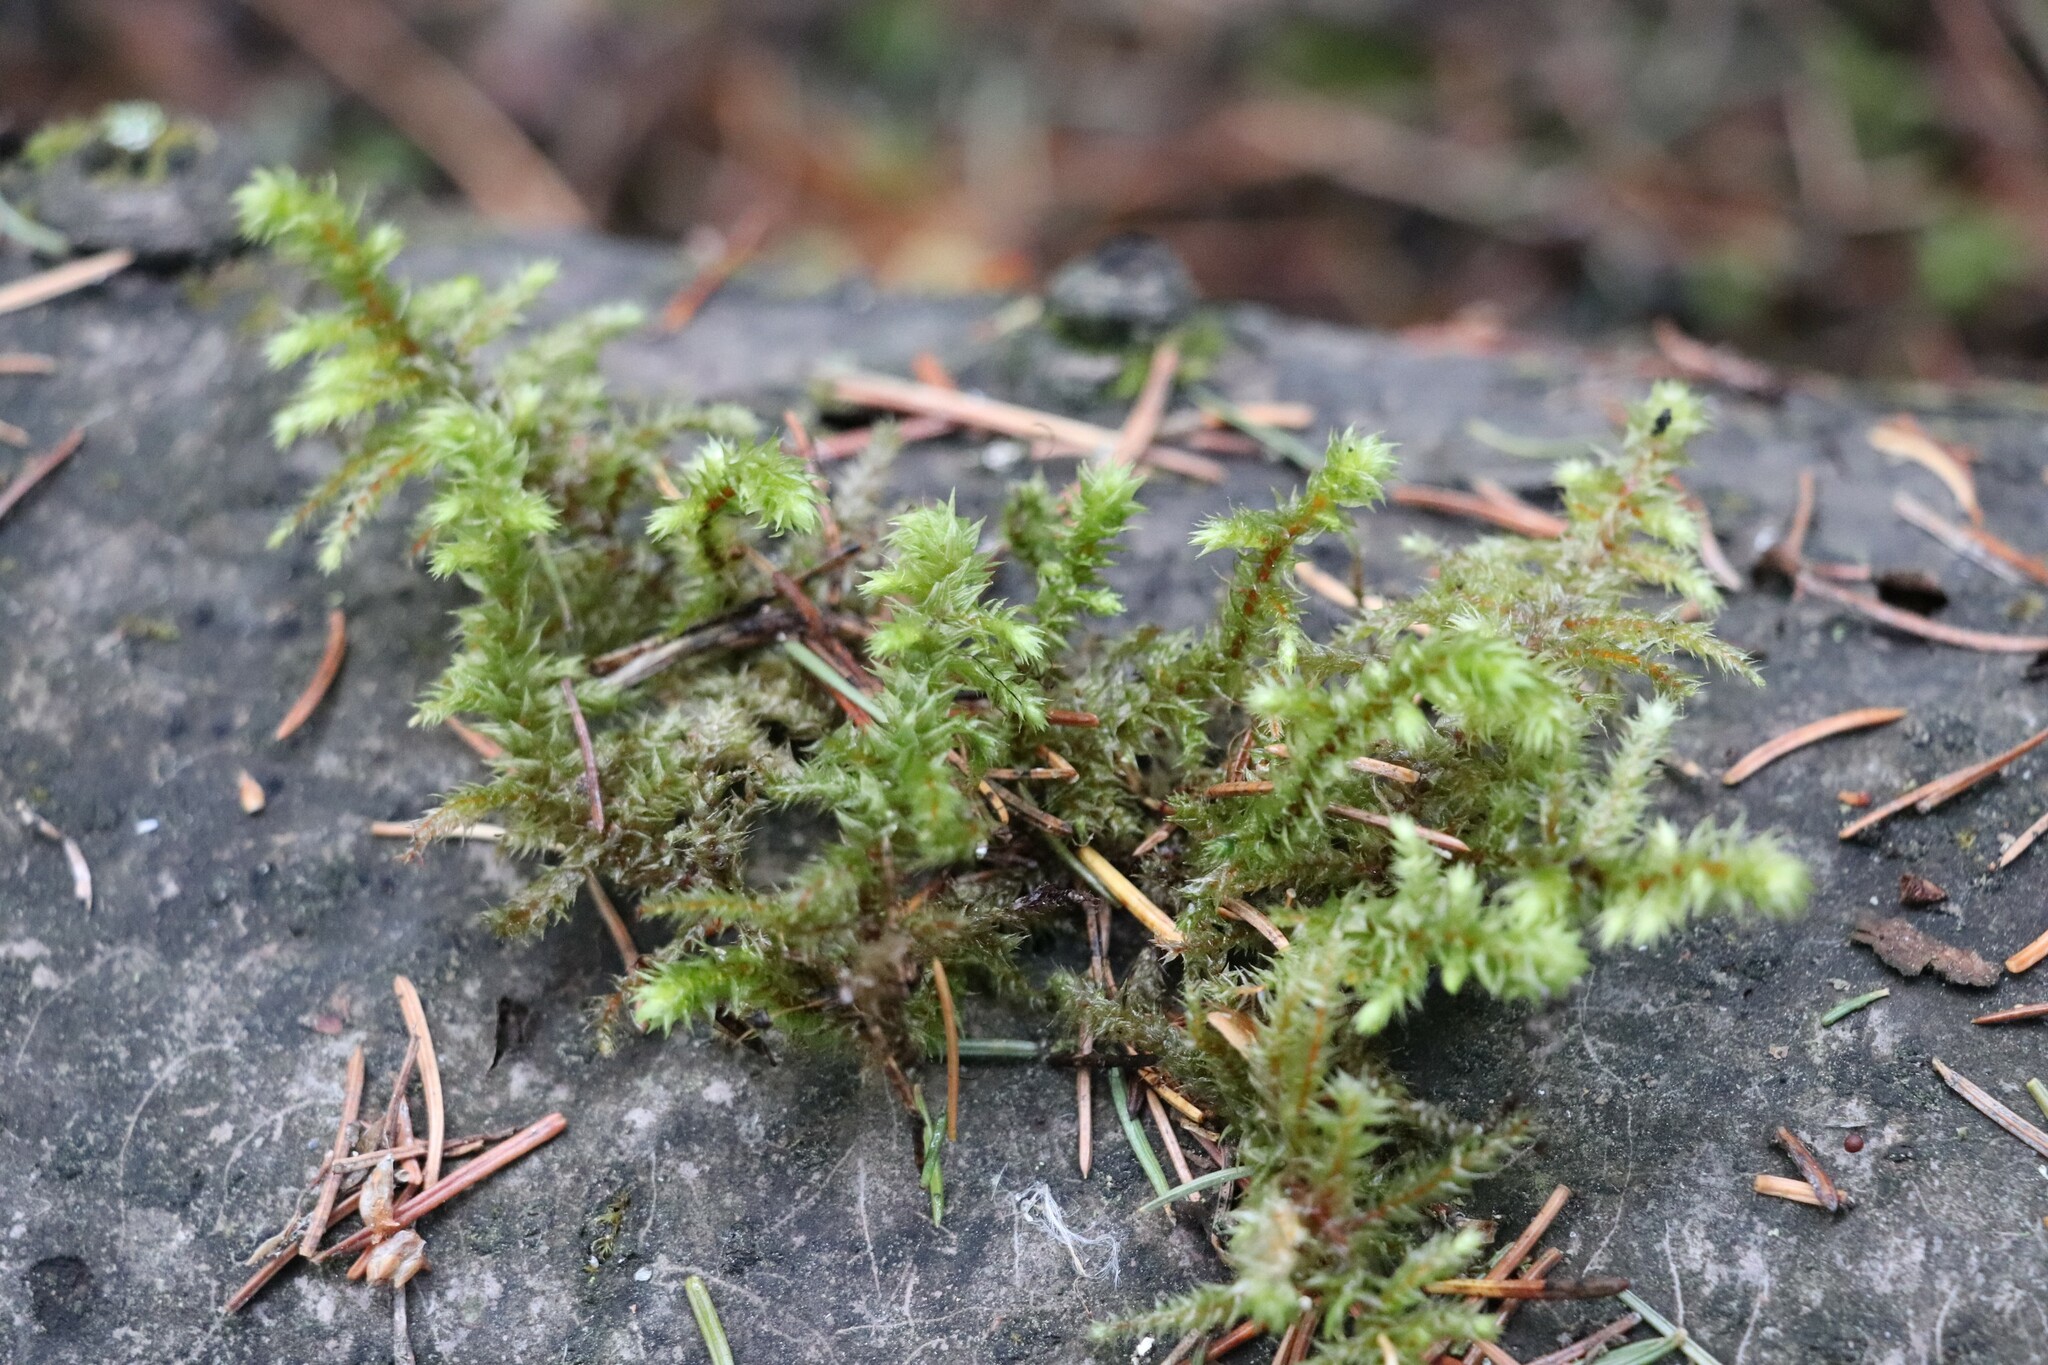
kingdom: Plantae
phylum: Bryophyta
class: Bryopsida
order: Hypnales
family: Hylocomiaceae
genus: Hylocomiadelphus
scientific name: Hylocomiadelphus triquetrus
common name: Rough goose neck moss
